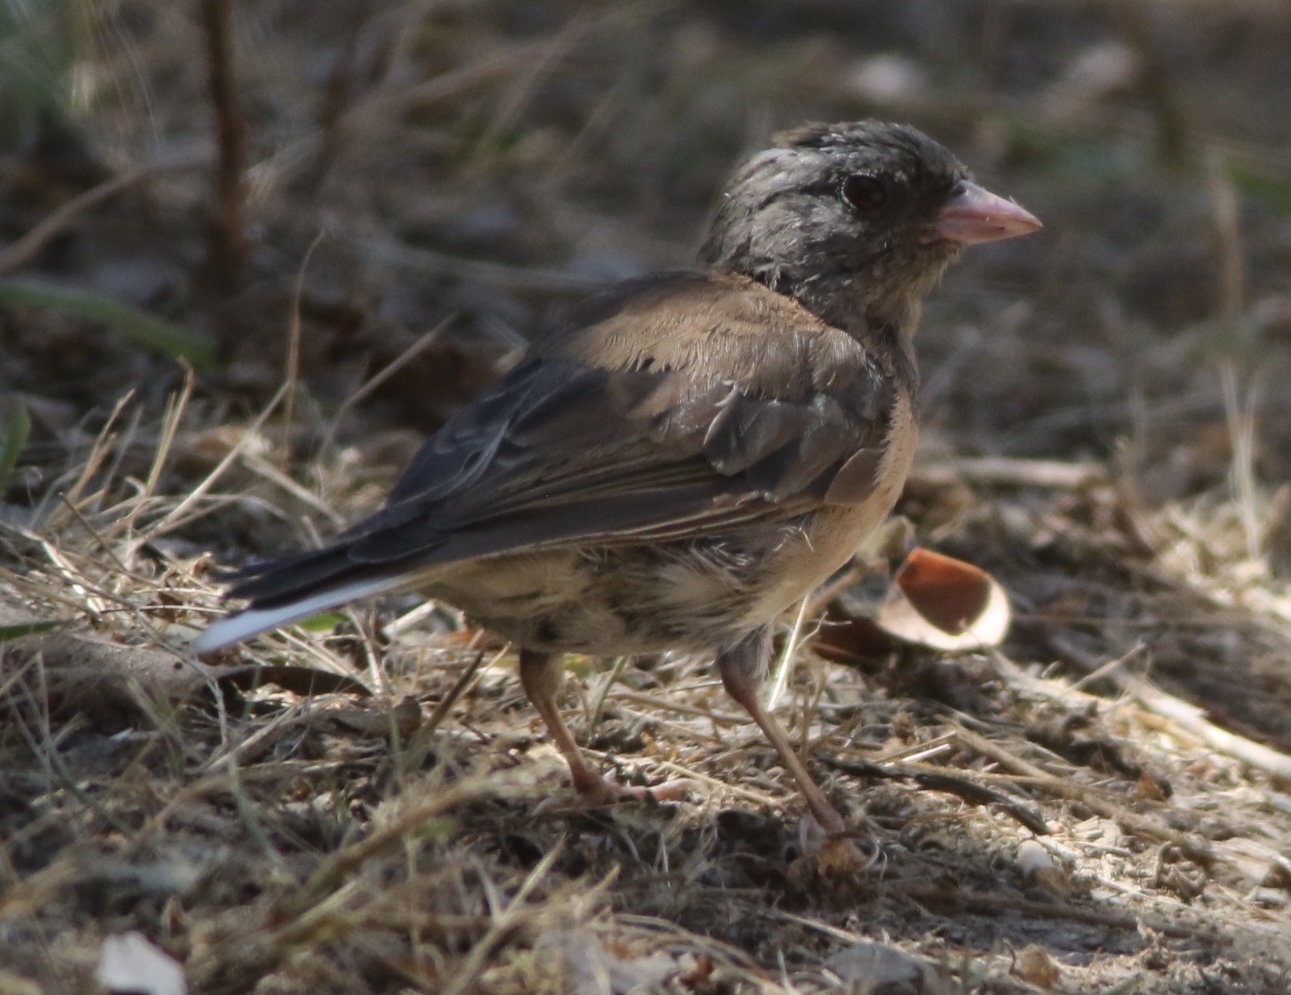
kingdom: Animalia
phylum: Chordata
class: Aves
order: Passeriformes
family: Passerellidae
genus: Junco
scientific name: Junco hyemalis
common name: Dark-eyed junco
